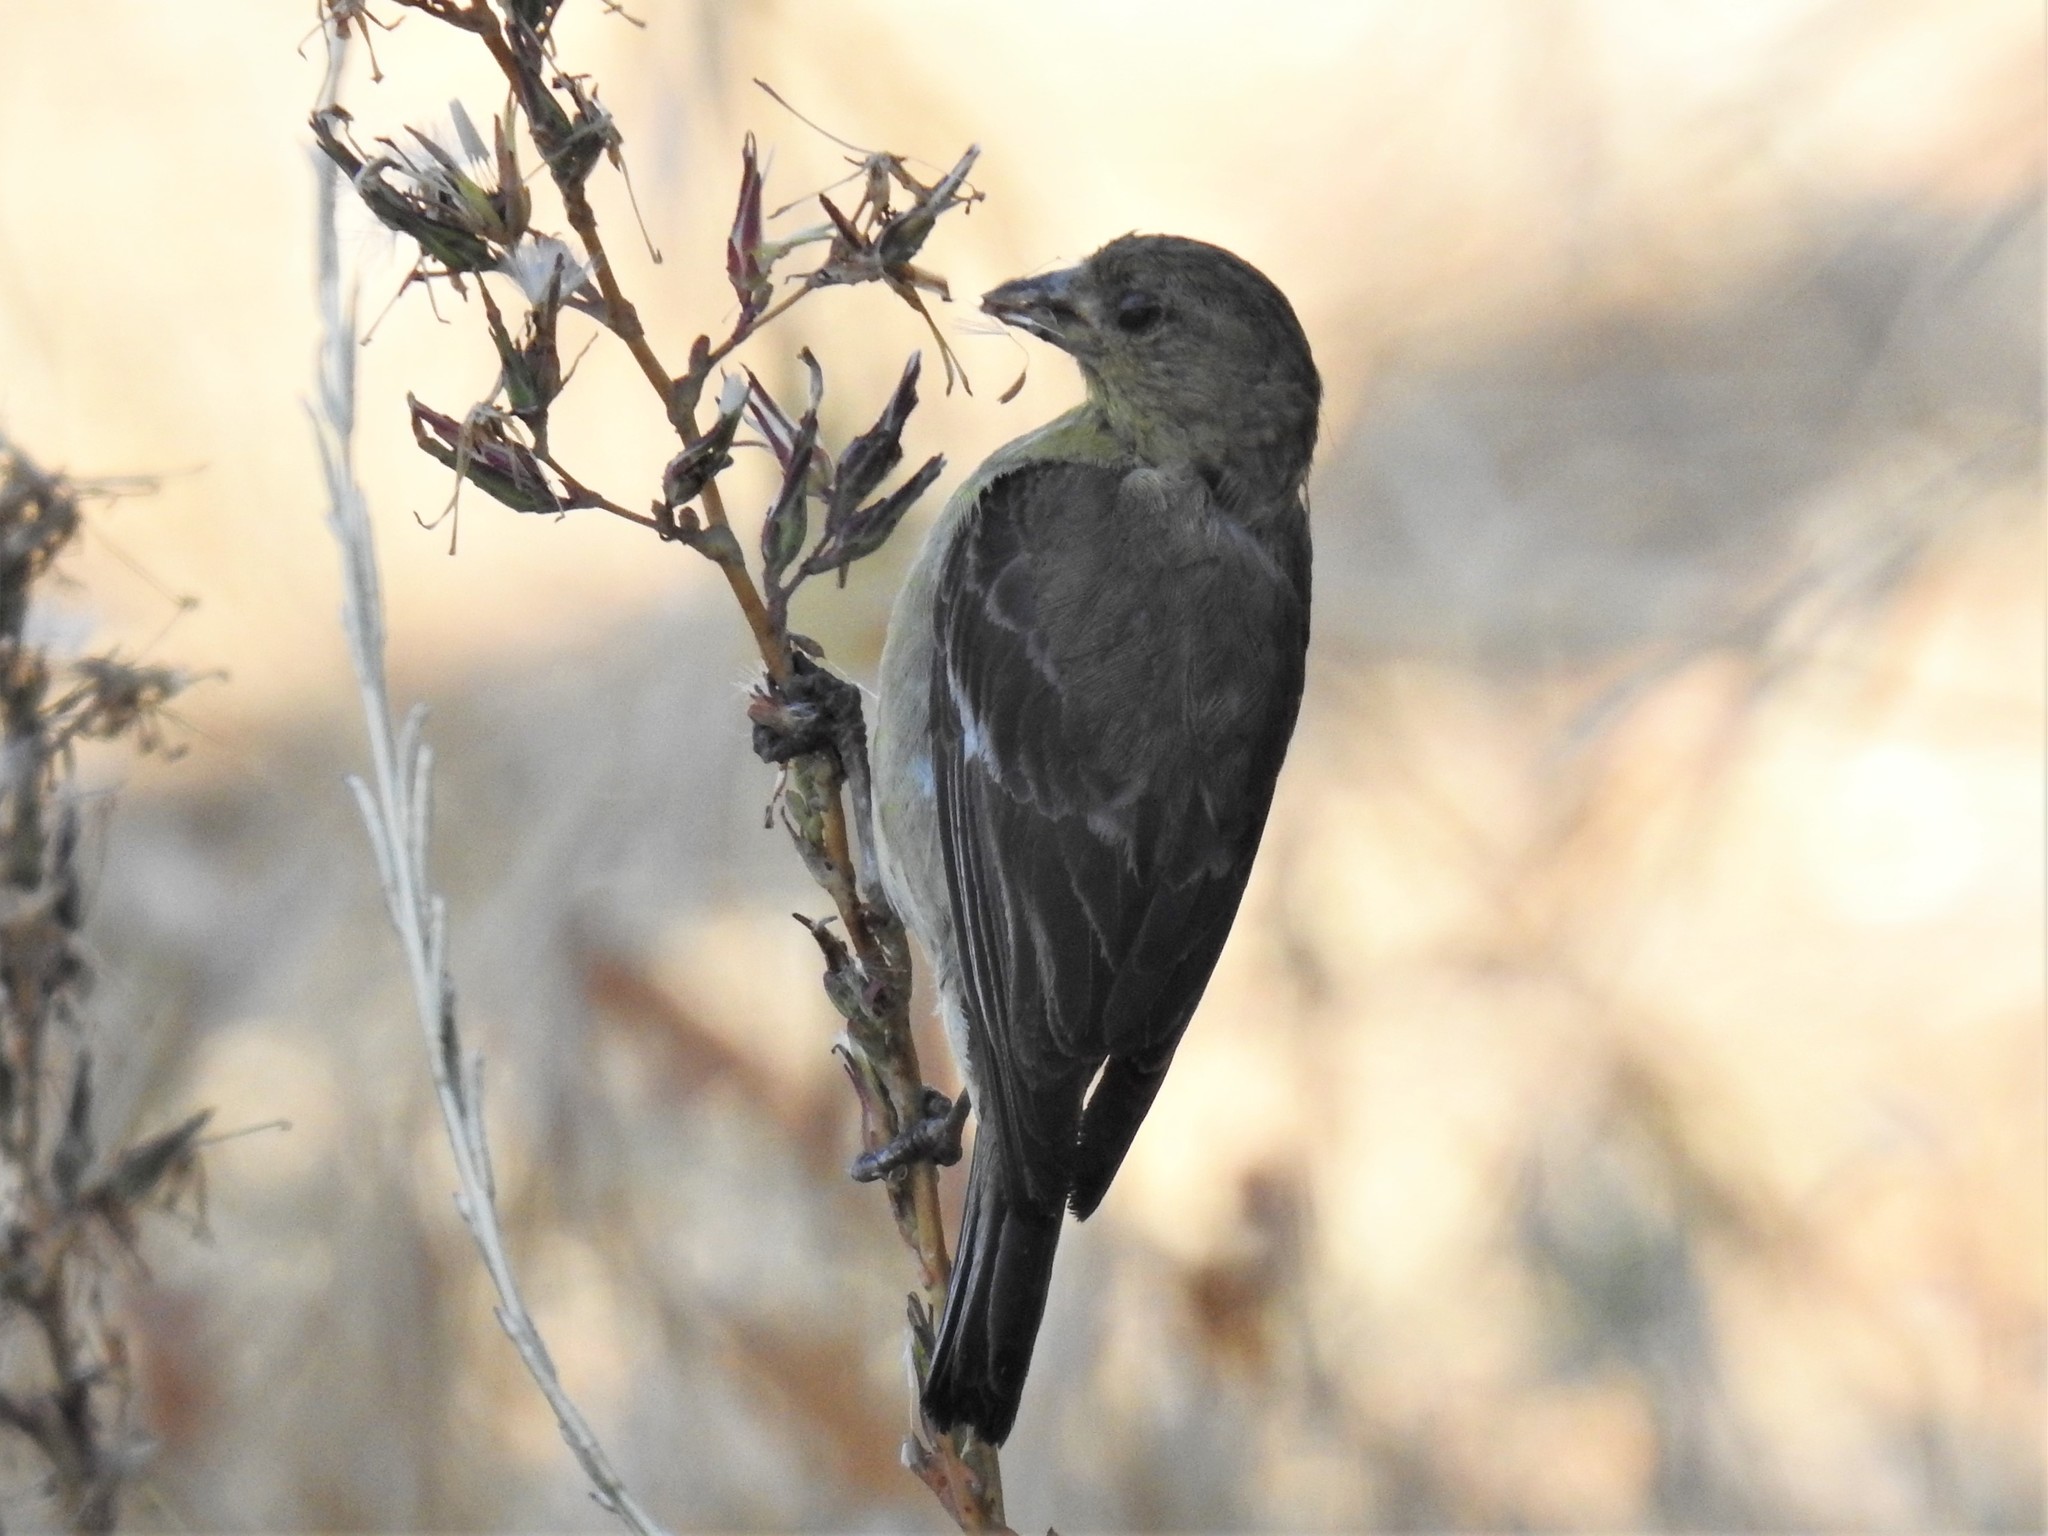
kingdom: Animalia
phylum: Chordata
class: Aves
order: Passeriformes
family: Fringillidae
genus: Spinus
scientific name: Spinus psaltria
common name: Lesser goldfinch
